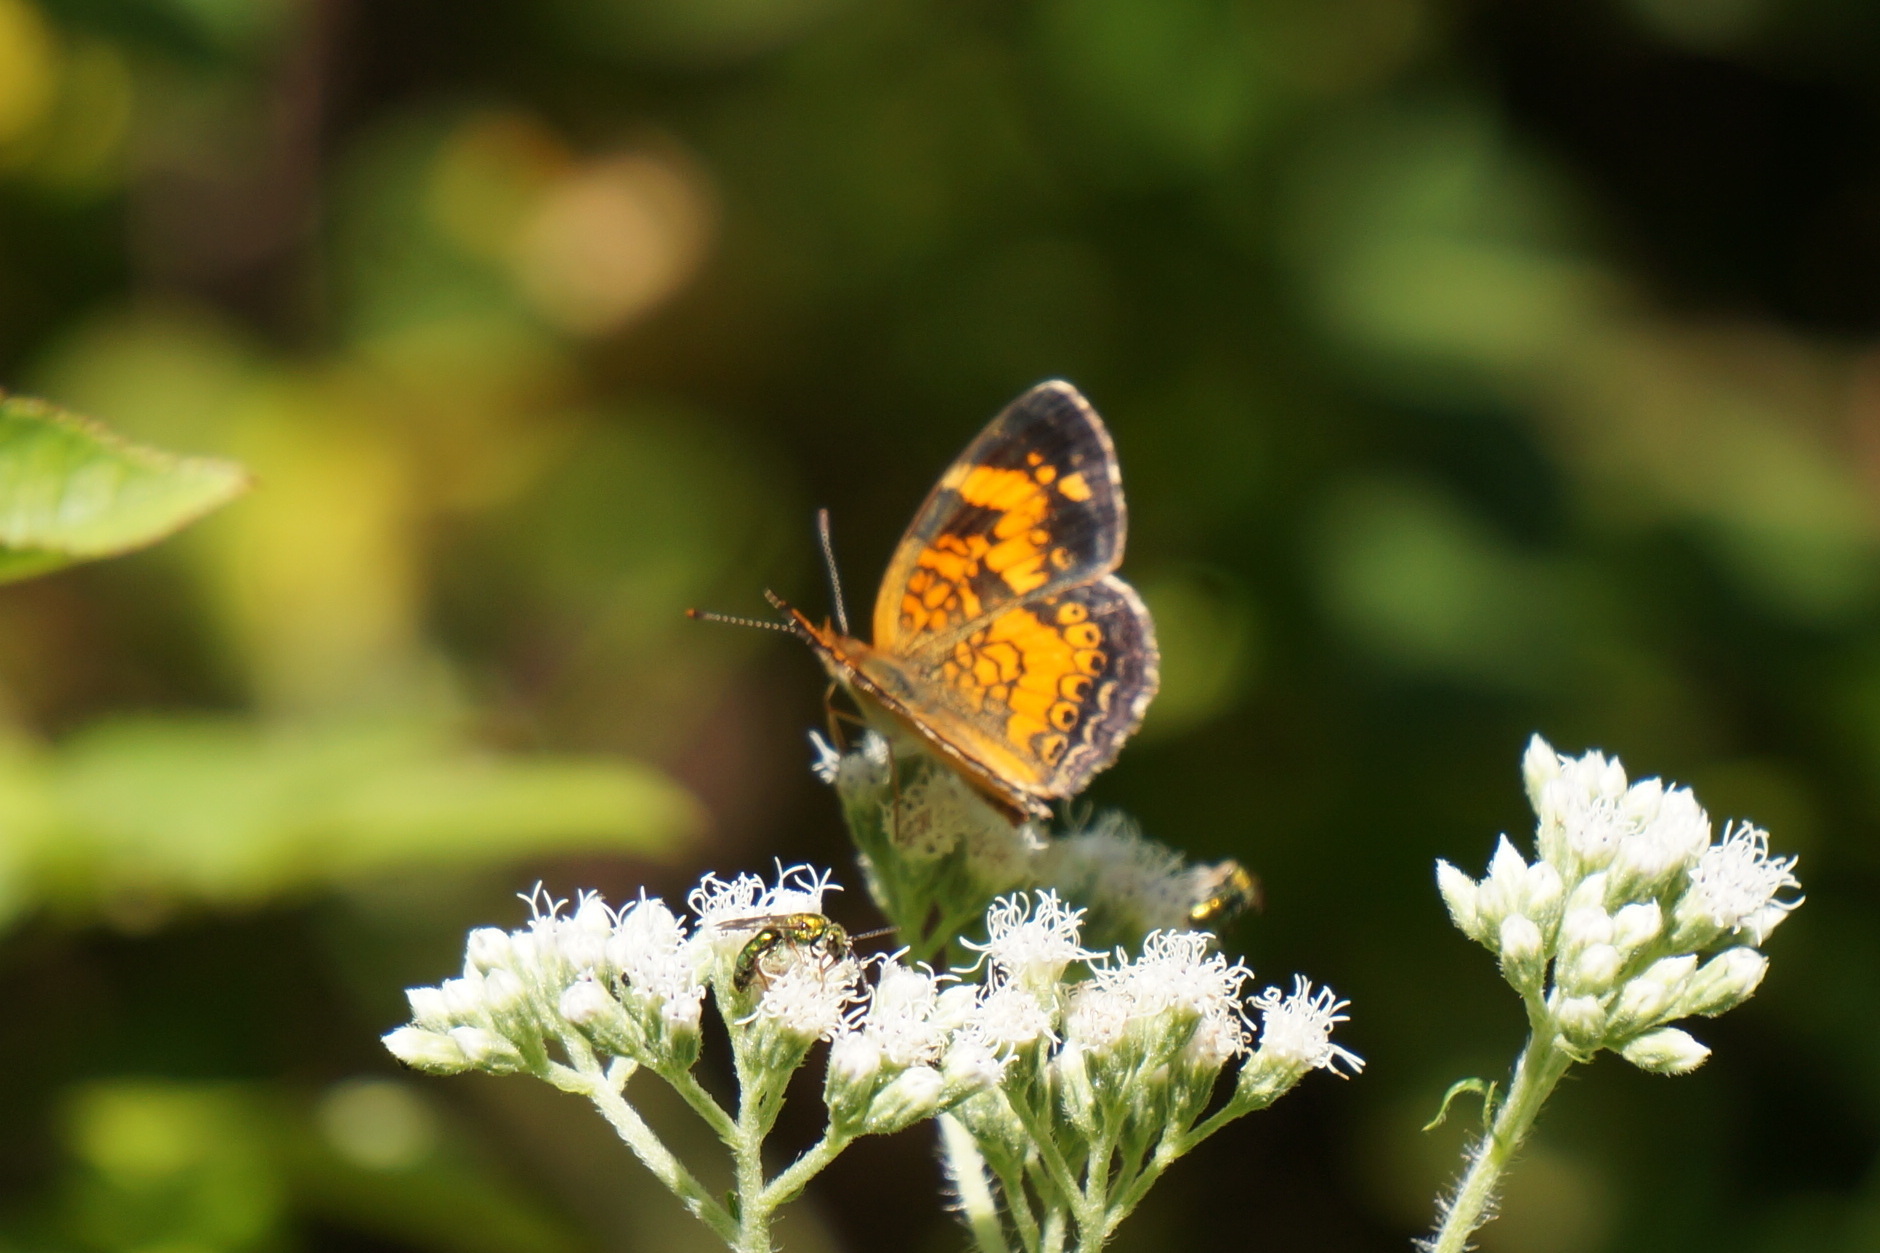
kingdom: Animalia
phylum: Arthropoda
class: Insecta
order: Lepidoptera
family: Nymphalidae
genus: Phyciodes
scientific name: Phyciodes tharos
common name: Pearl crescent
